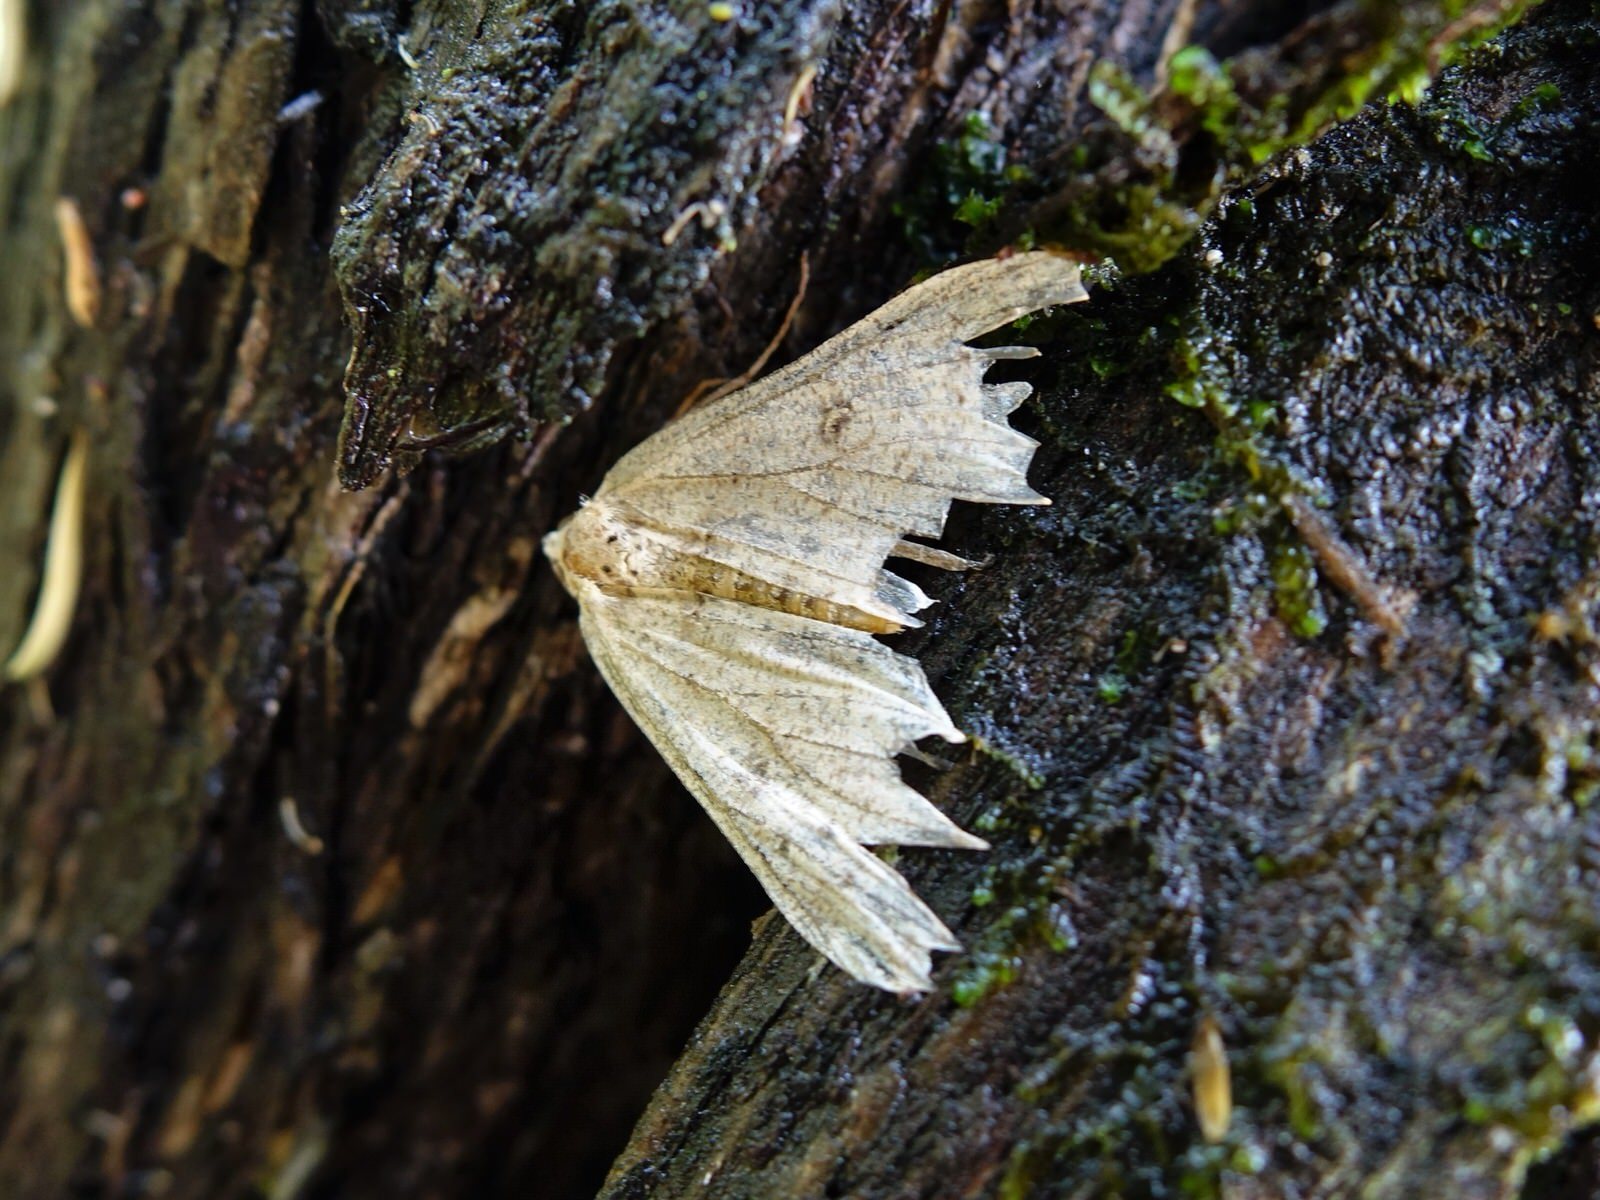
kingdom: Animalia
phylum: Arthropoda
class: Insecta
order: Lepidoptera
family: Geometridae
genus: Cleora
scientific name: Cleora scriptaria
